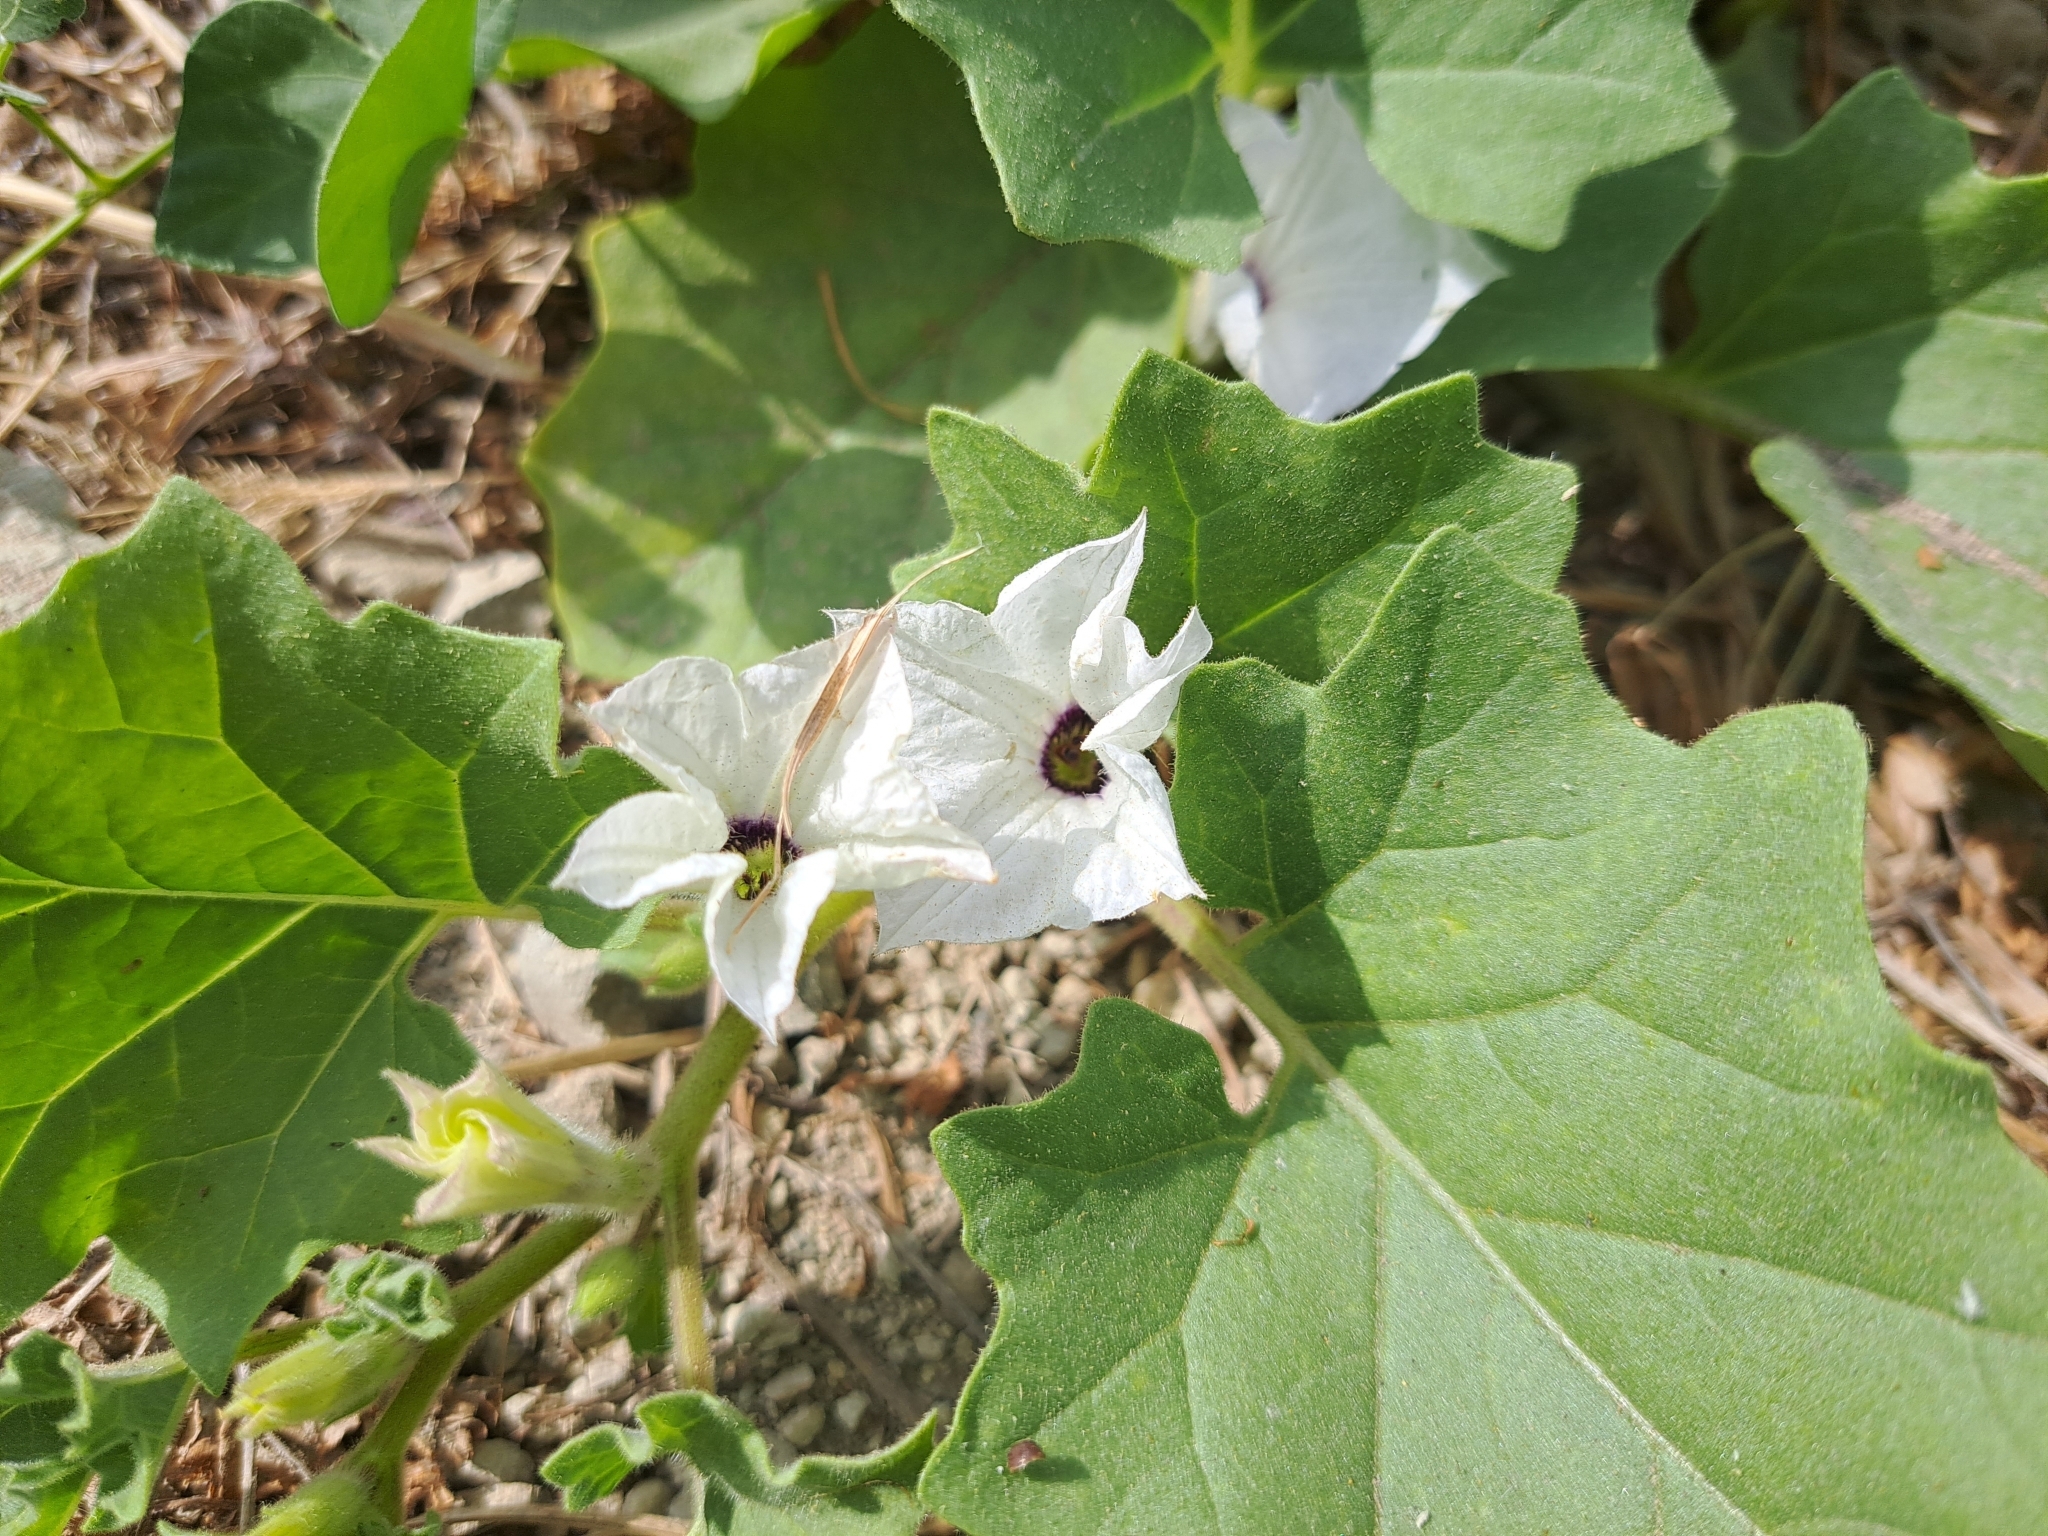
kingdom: Plantae
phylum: Tracheophyta
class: Magnoliopsida
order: Solanales
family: Solanaceae
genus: Exodeconus
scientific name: Exodeconus maritima
